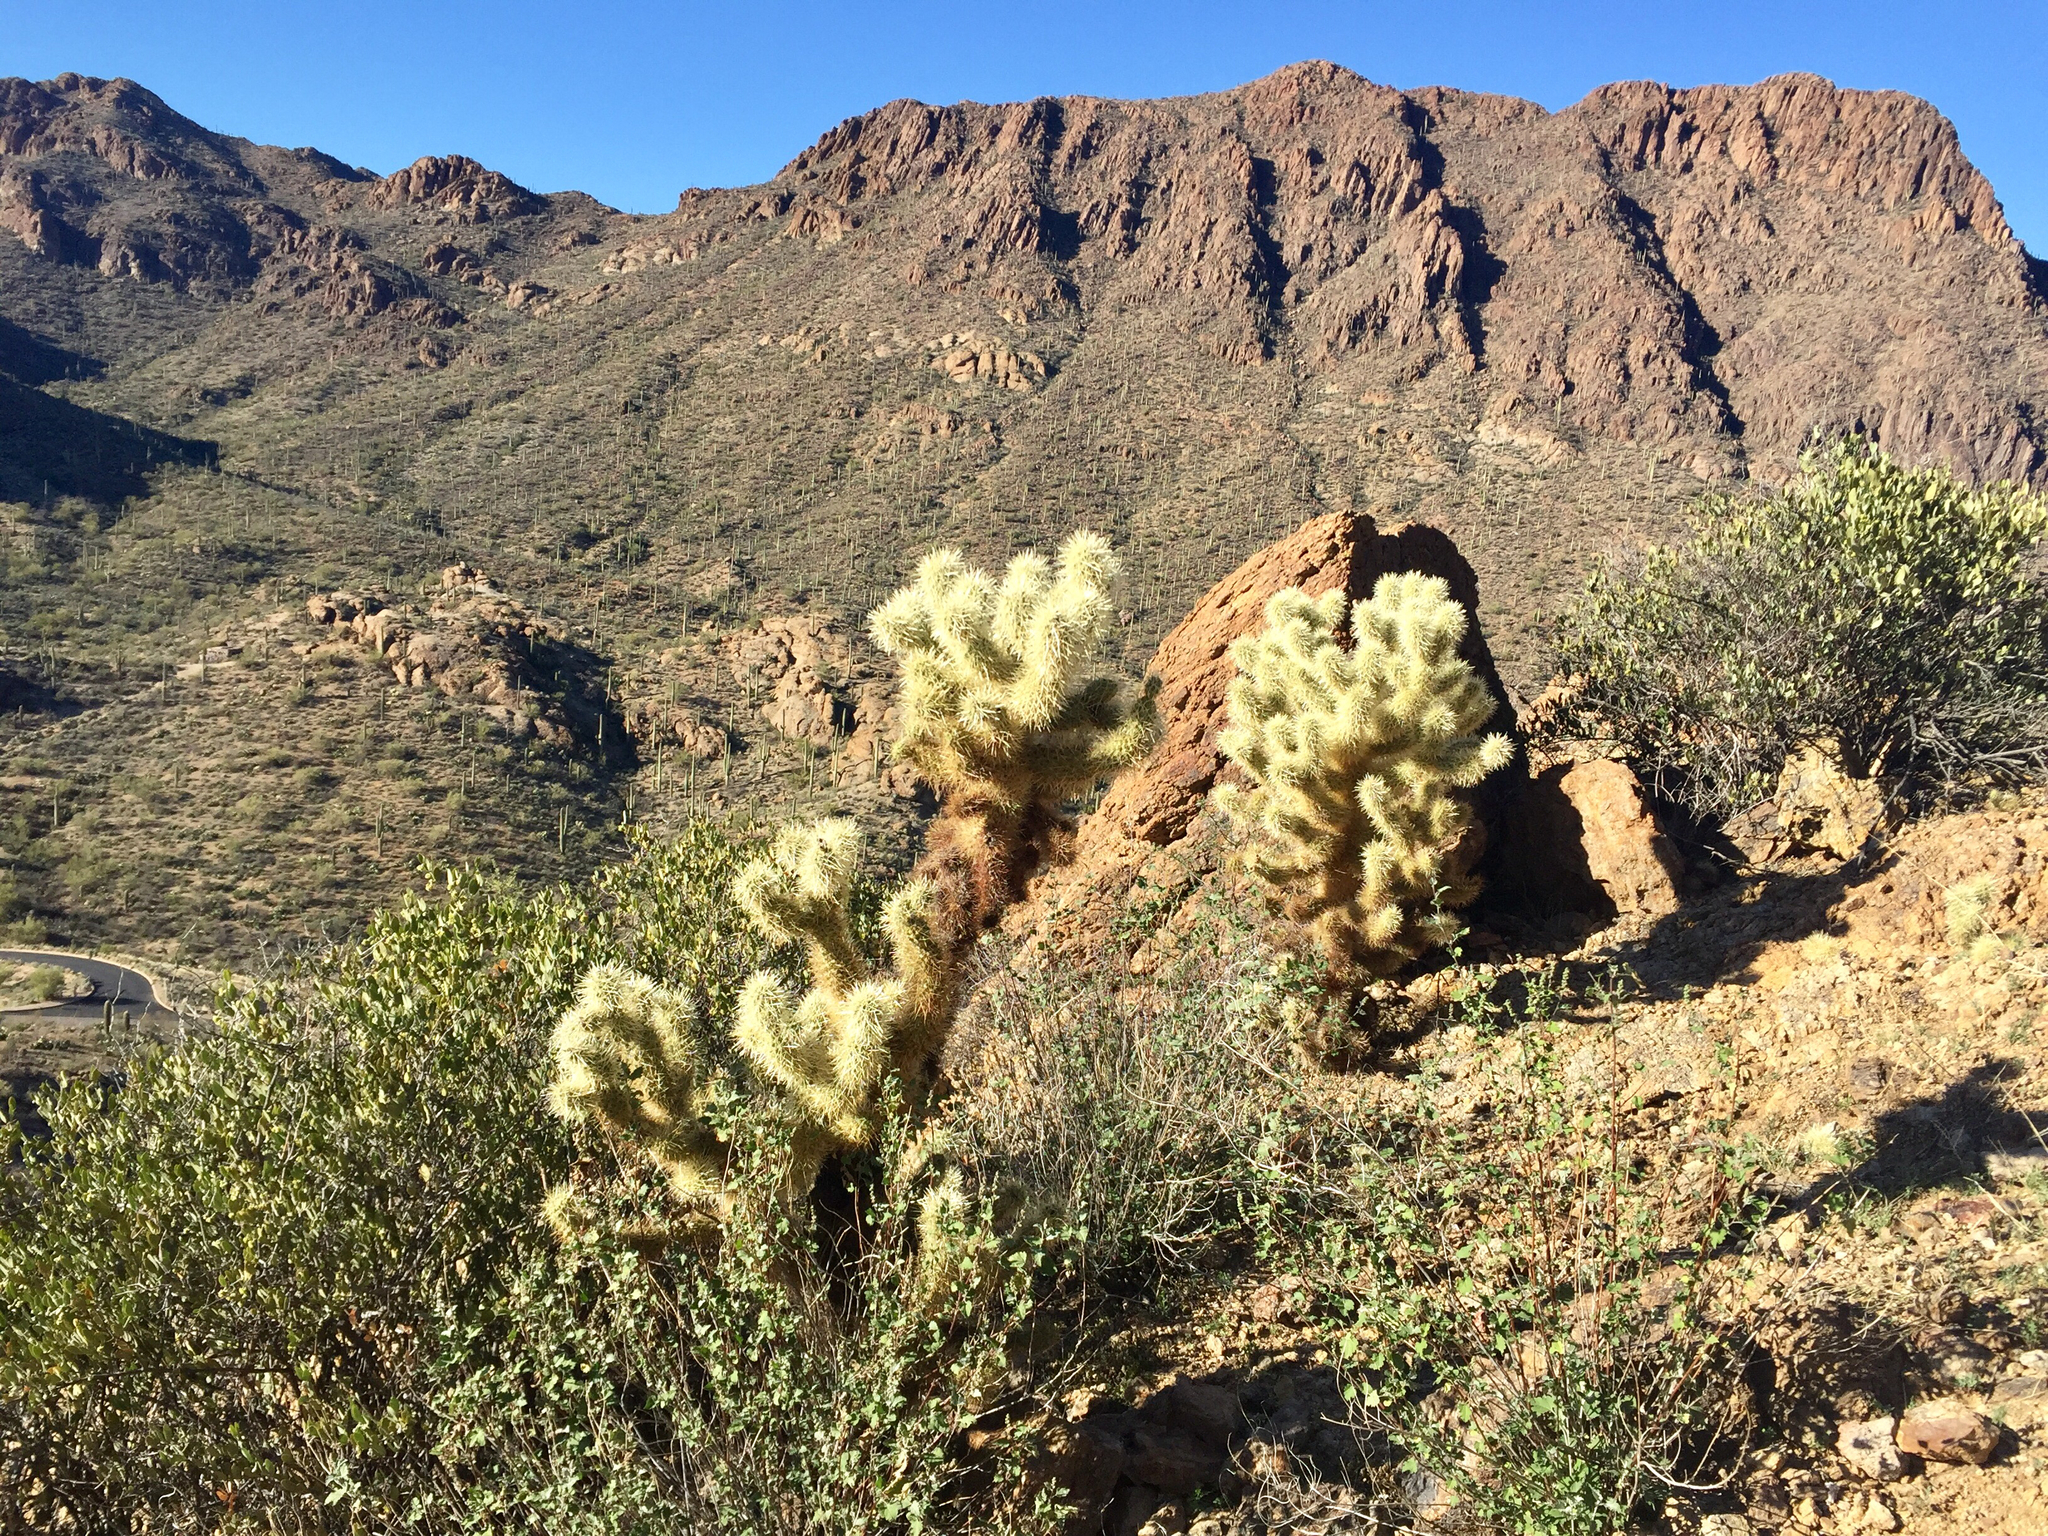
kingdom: Plantae
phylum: Tracheophyta
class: Magnoliopsida
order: Caryophyllales
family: Cactaceae
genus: Cylindropuntia
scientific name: Cylindropuntia fosbergii
